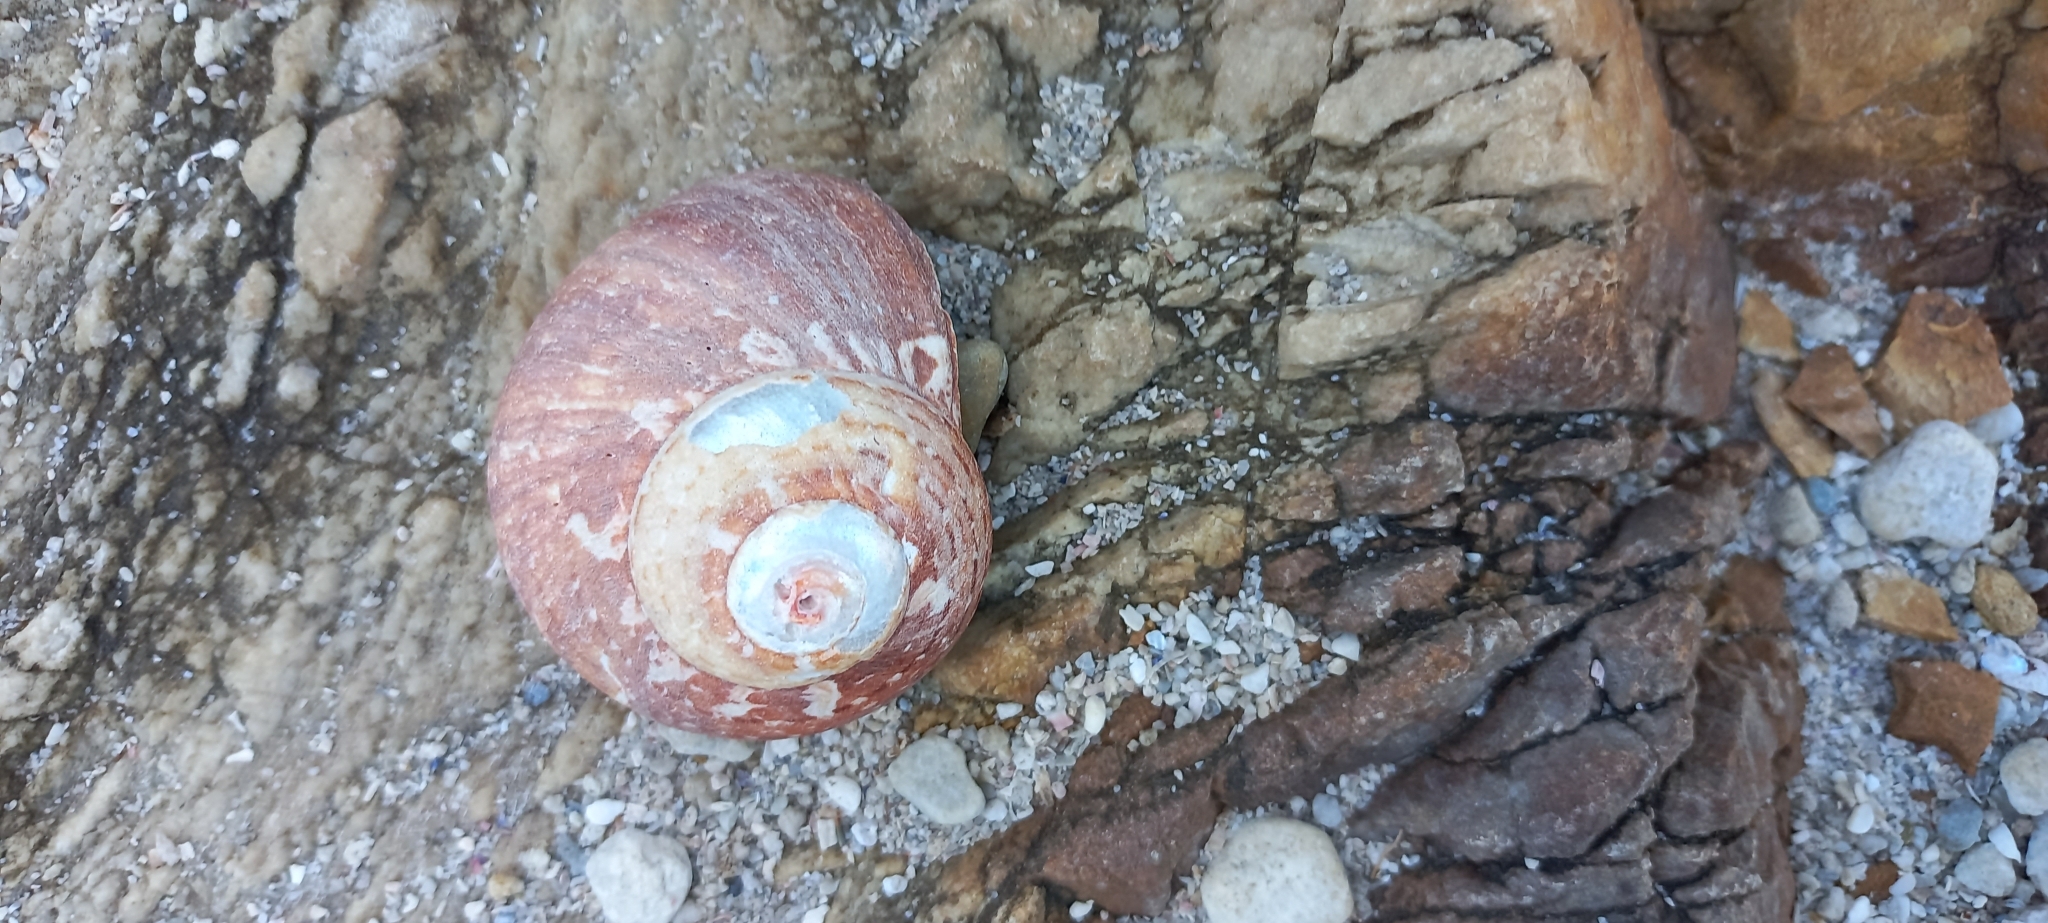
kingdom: Animalia
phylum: Mollusca
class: Gastropoda
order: Trochida
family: Turbinidae
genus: Turbo
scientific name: Turbo cidaris
